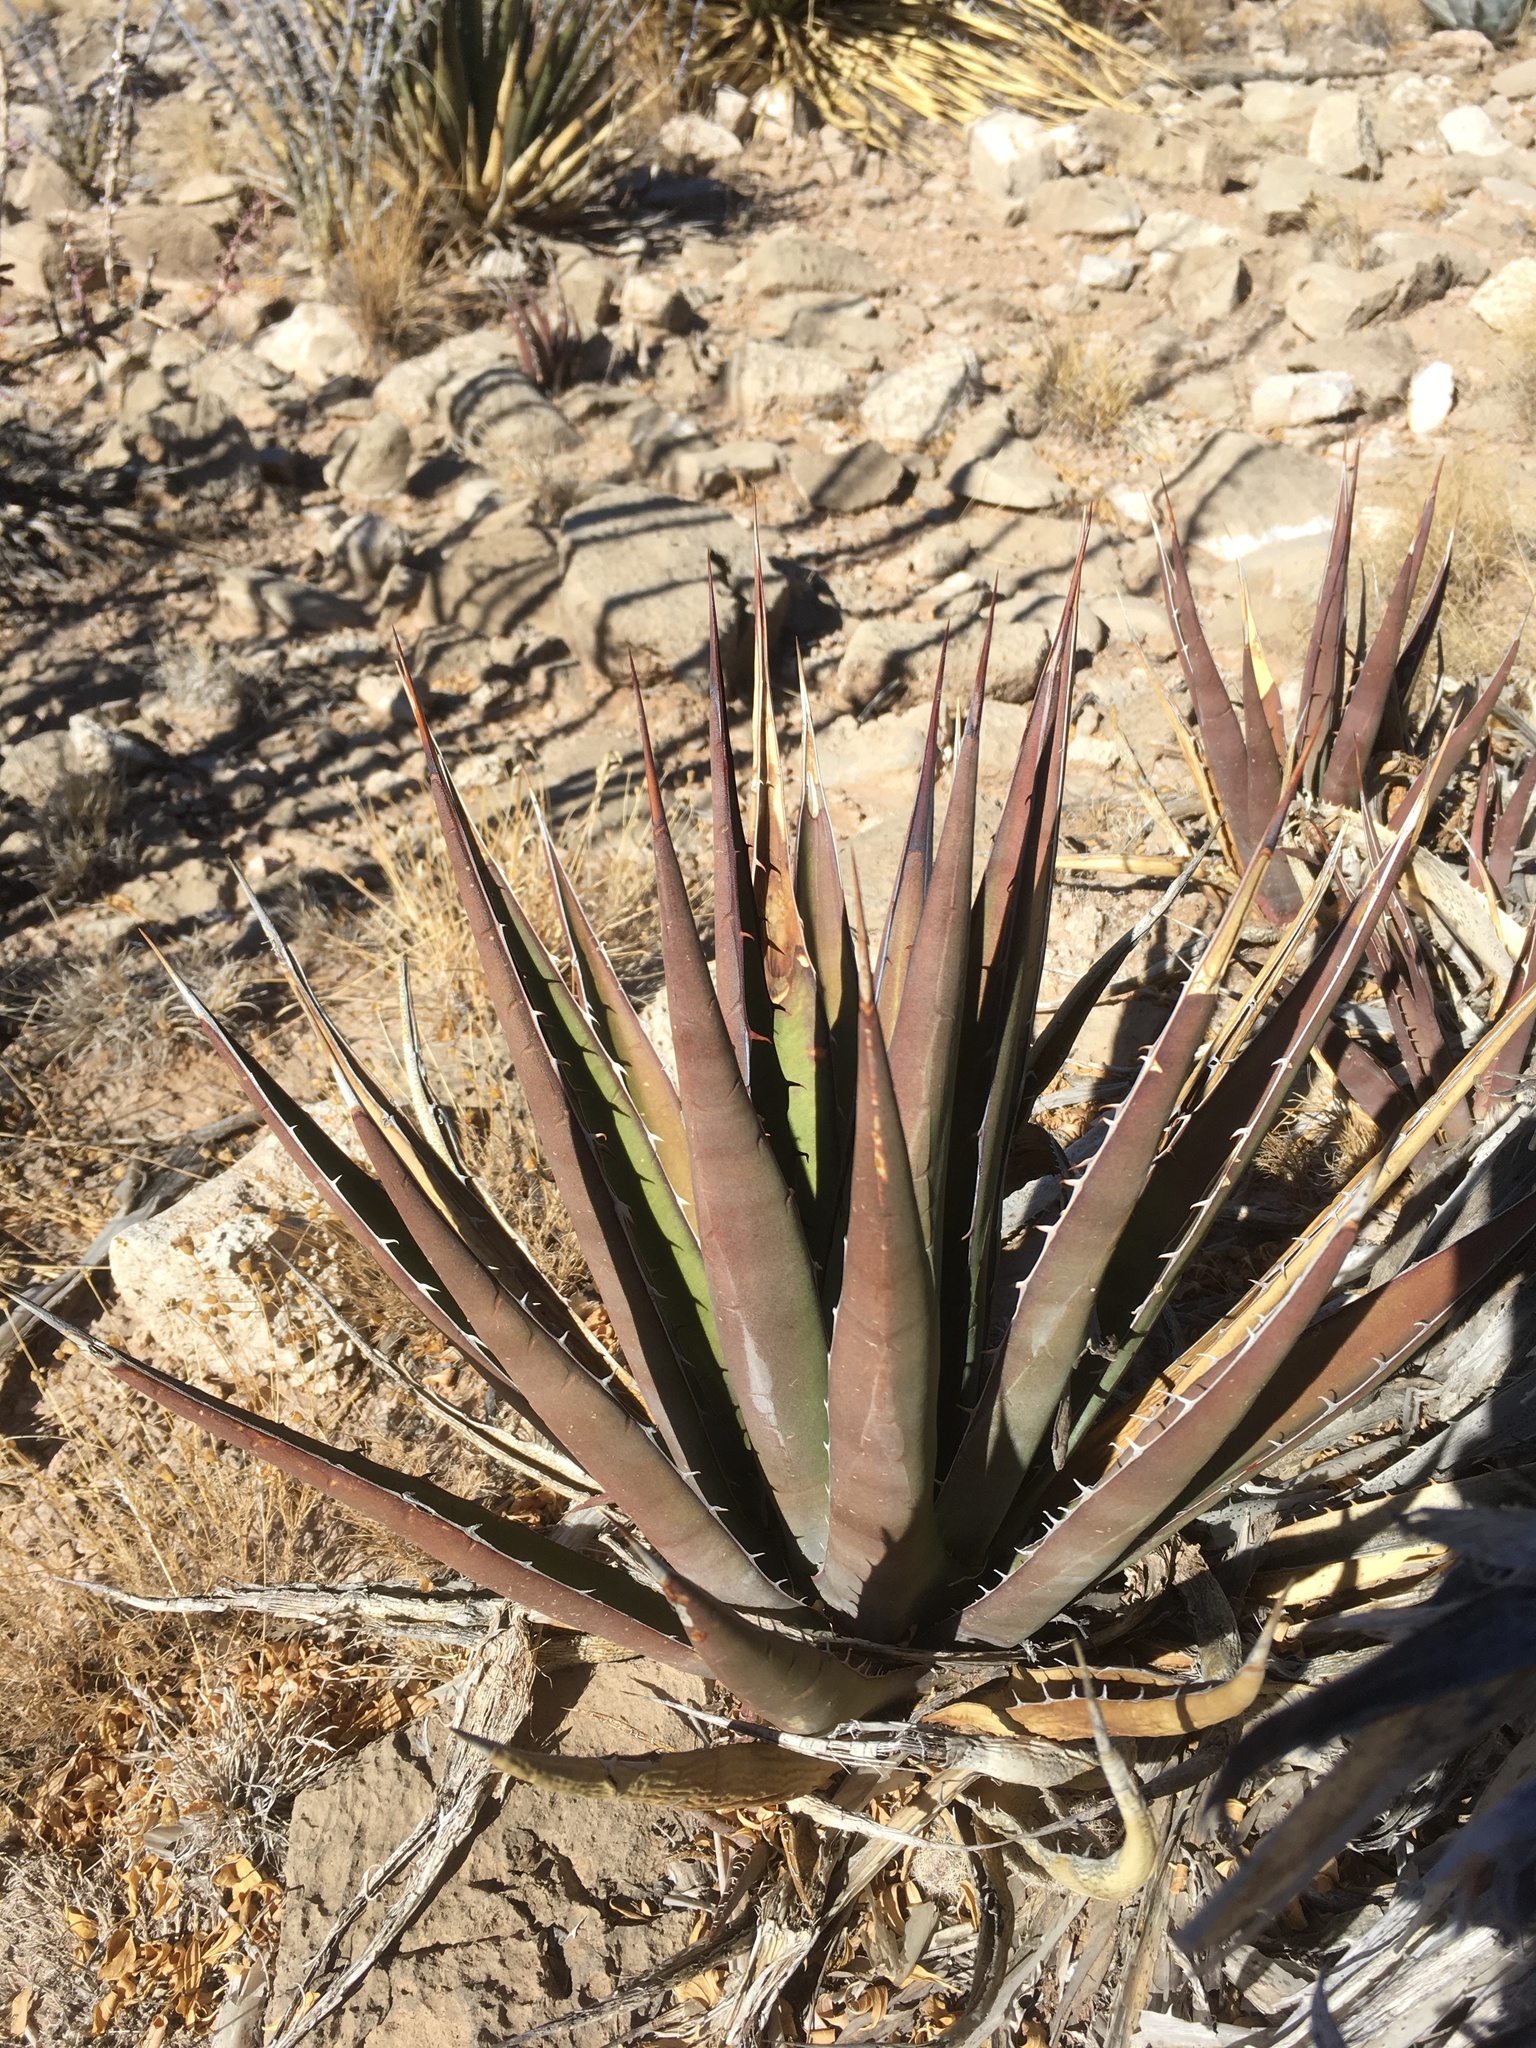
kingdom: Plantae
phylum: Tracheophyta
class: Liliopsida
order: Asparagales
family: Asparagaceae
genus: Agave
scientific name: Agave lechuguilla
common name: Lecheguilla agave
